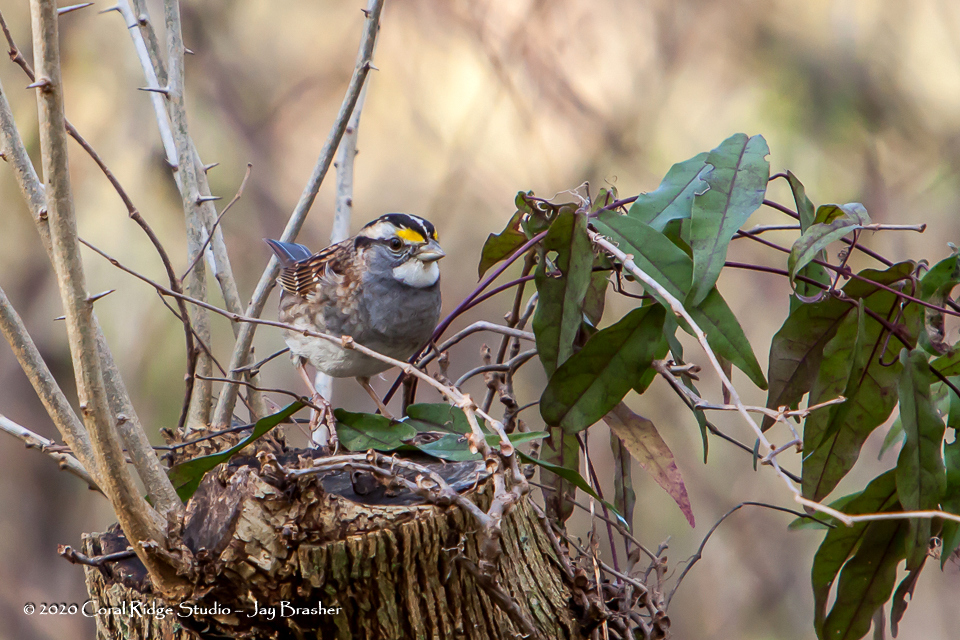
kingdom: Animalia
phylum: Chordata
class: Aves
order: Passeriformes
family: Passerellidae
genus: Zonotrichia
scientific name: Zonotrichia albicollis
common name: White-throated sparrow
